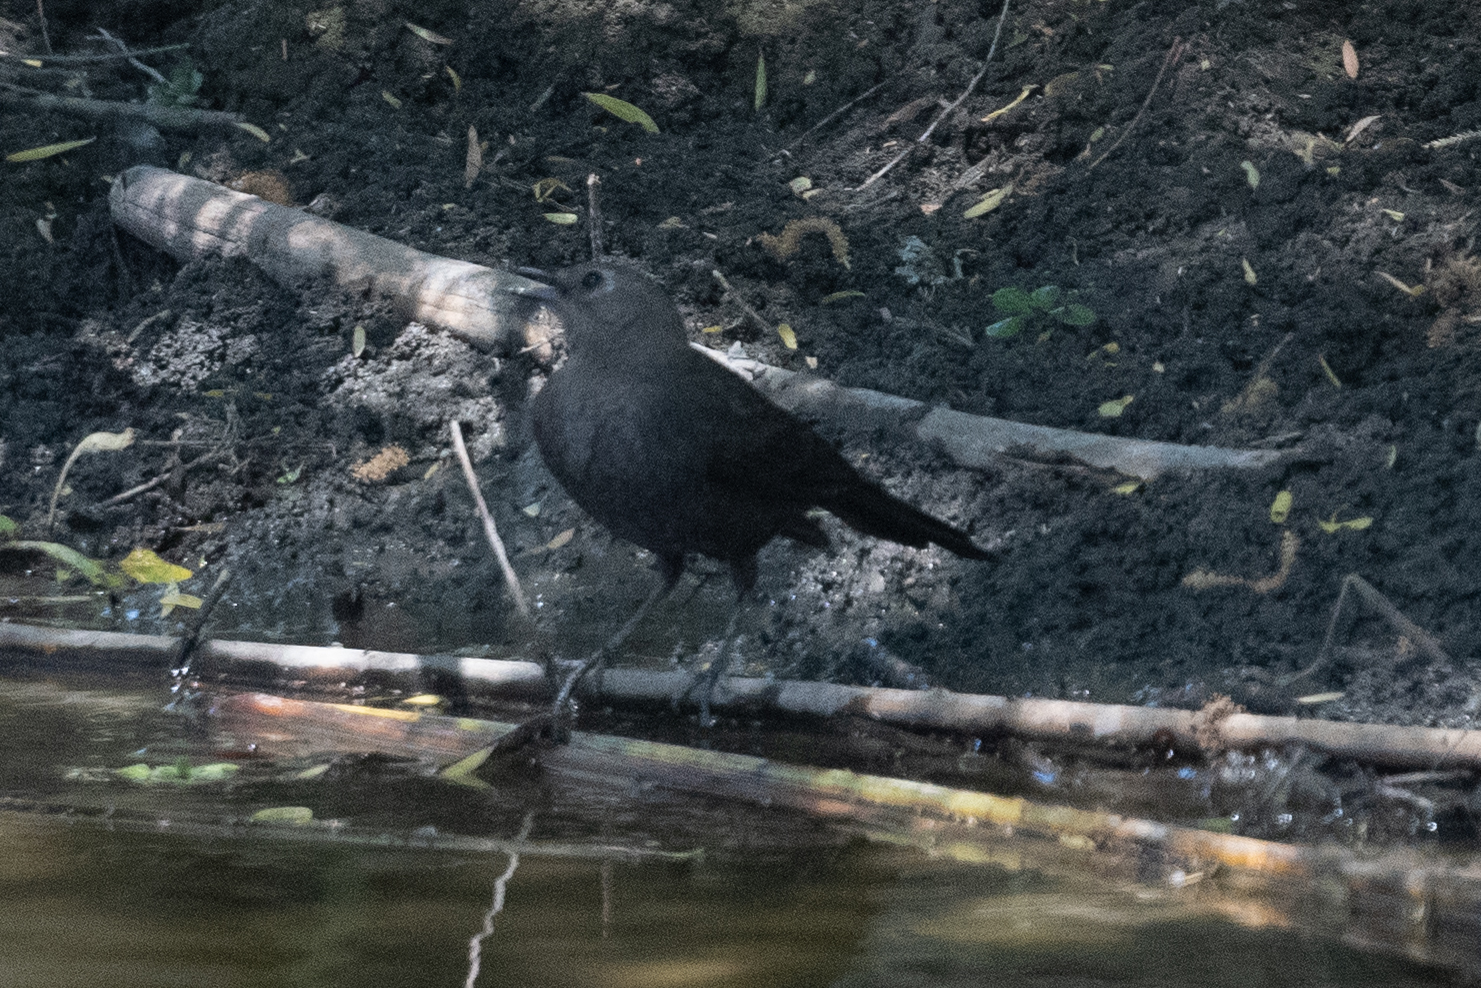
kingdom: Animalia
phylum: Chordata
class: Aves
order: Passeriformes
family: Icteridae
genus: Euphagus
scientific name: Euphagus cyanocephalus
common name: Brewer's blackbird
